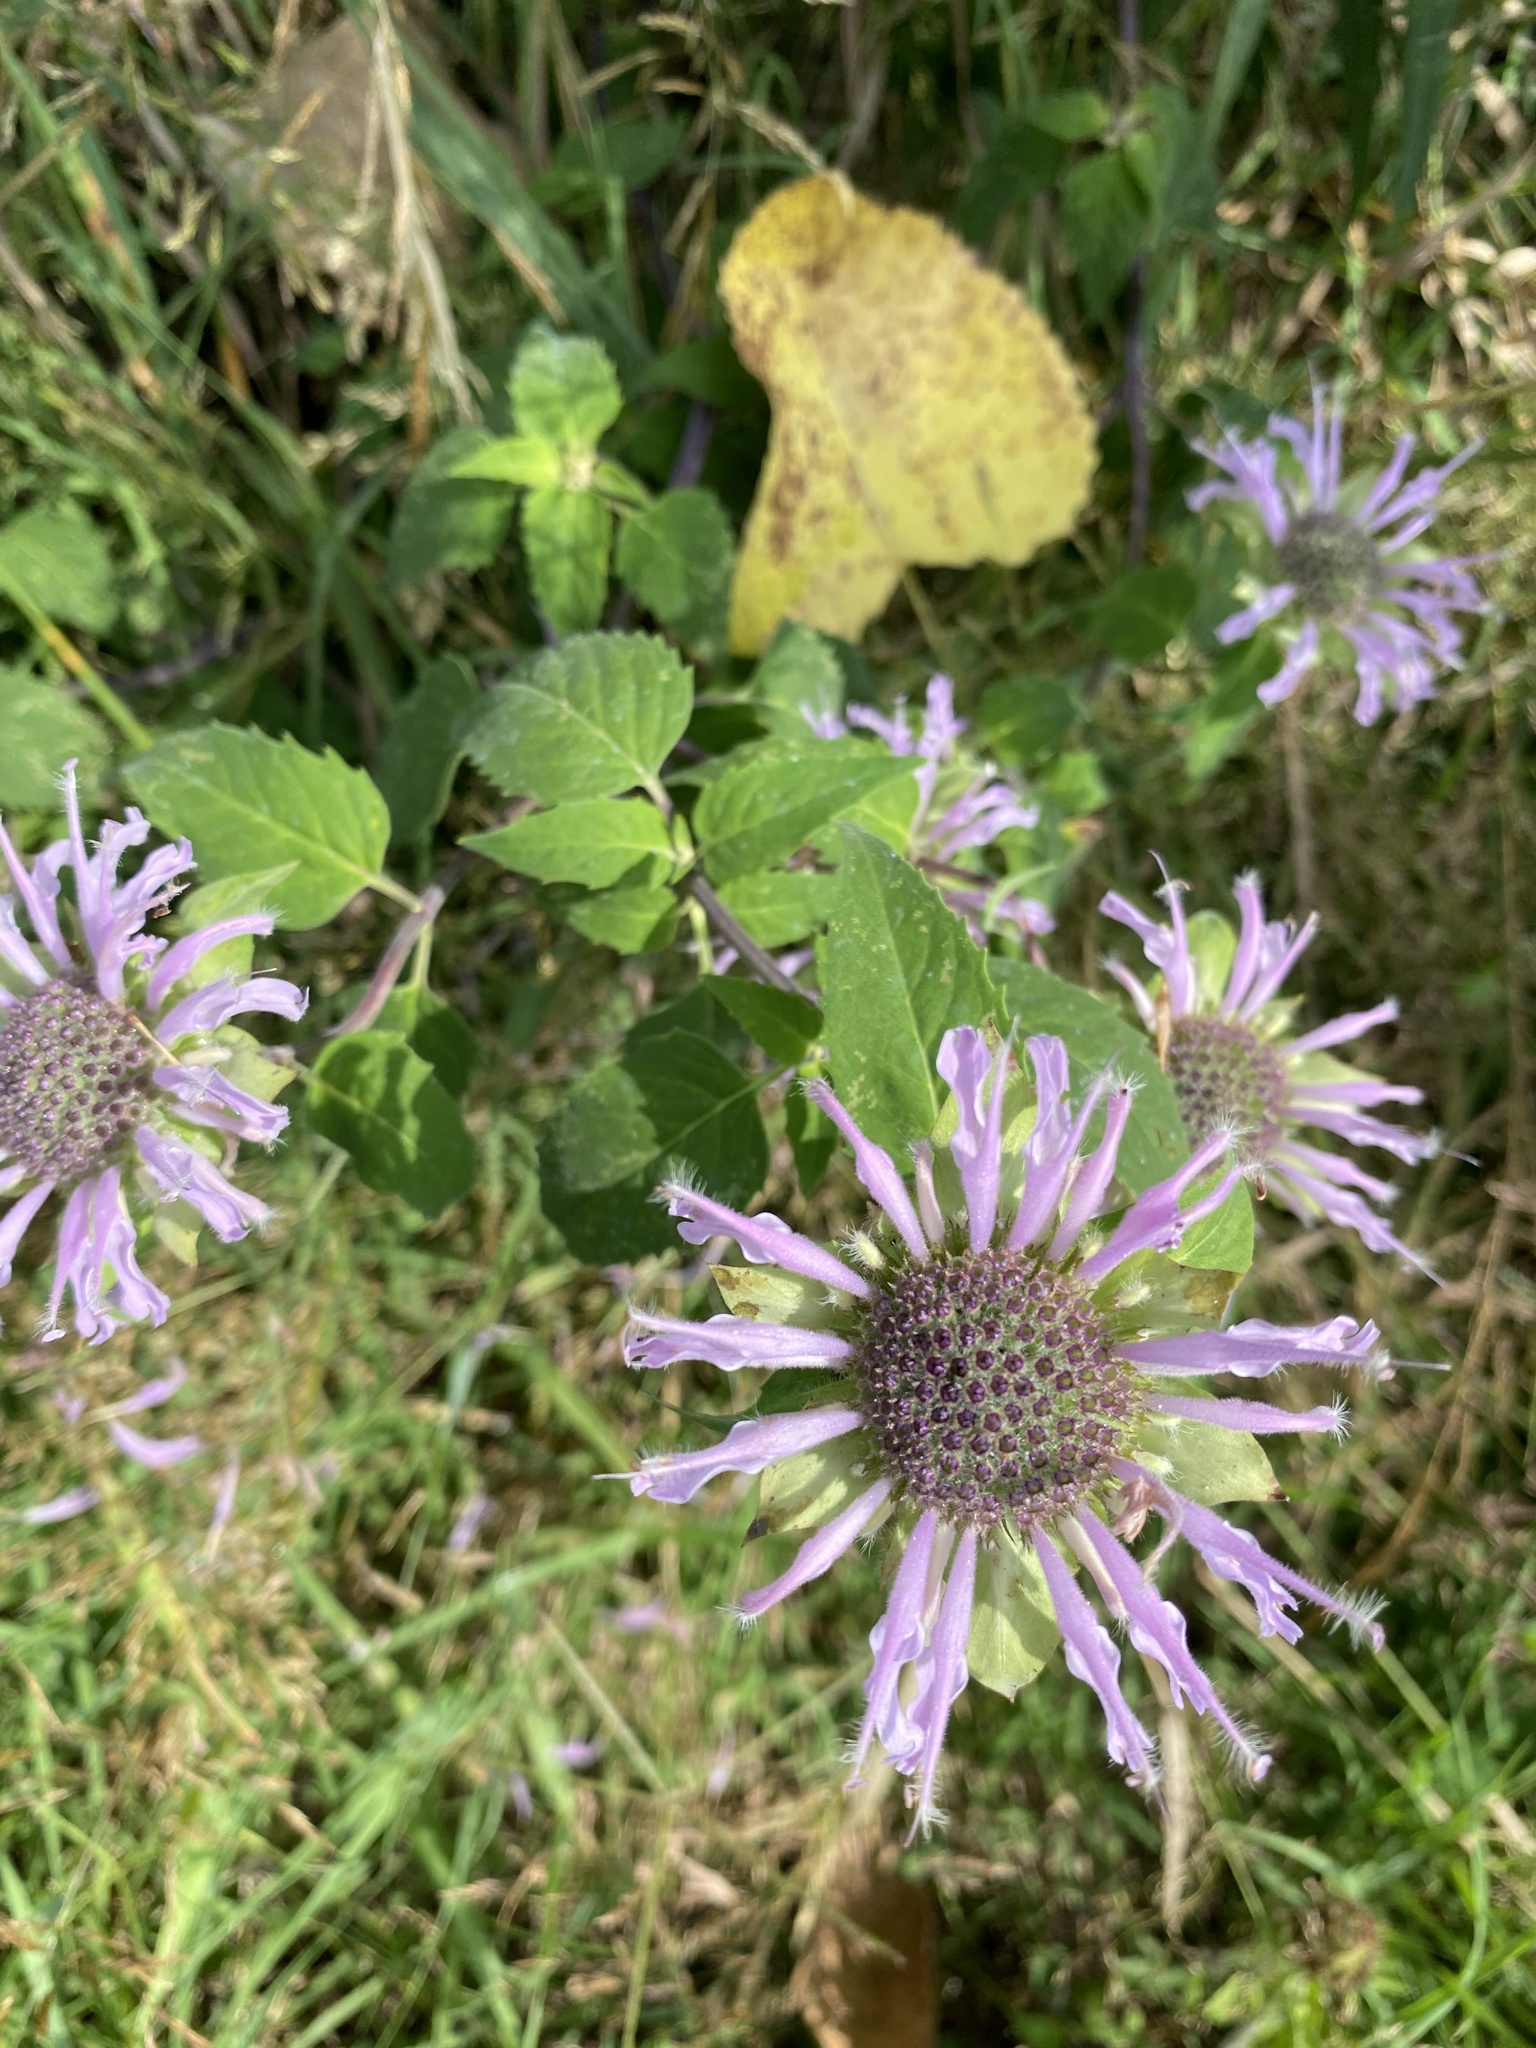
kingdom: Plantae
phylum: Tracheophyta
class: Magnoliopsida
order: Lamiales
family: Lamiaceae
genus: Monarda
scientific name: Monarda fistulosa
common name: Purple beebalm
